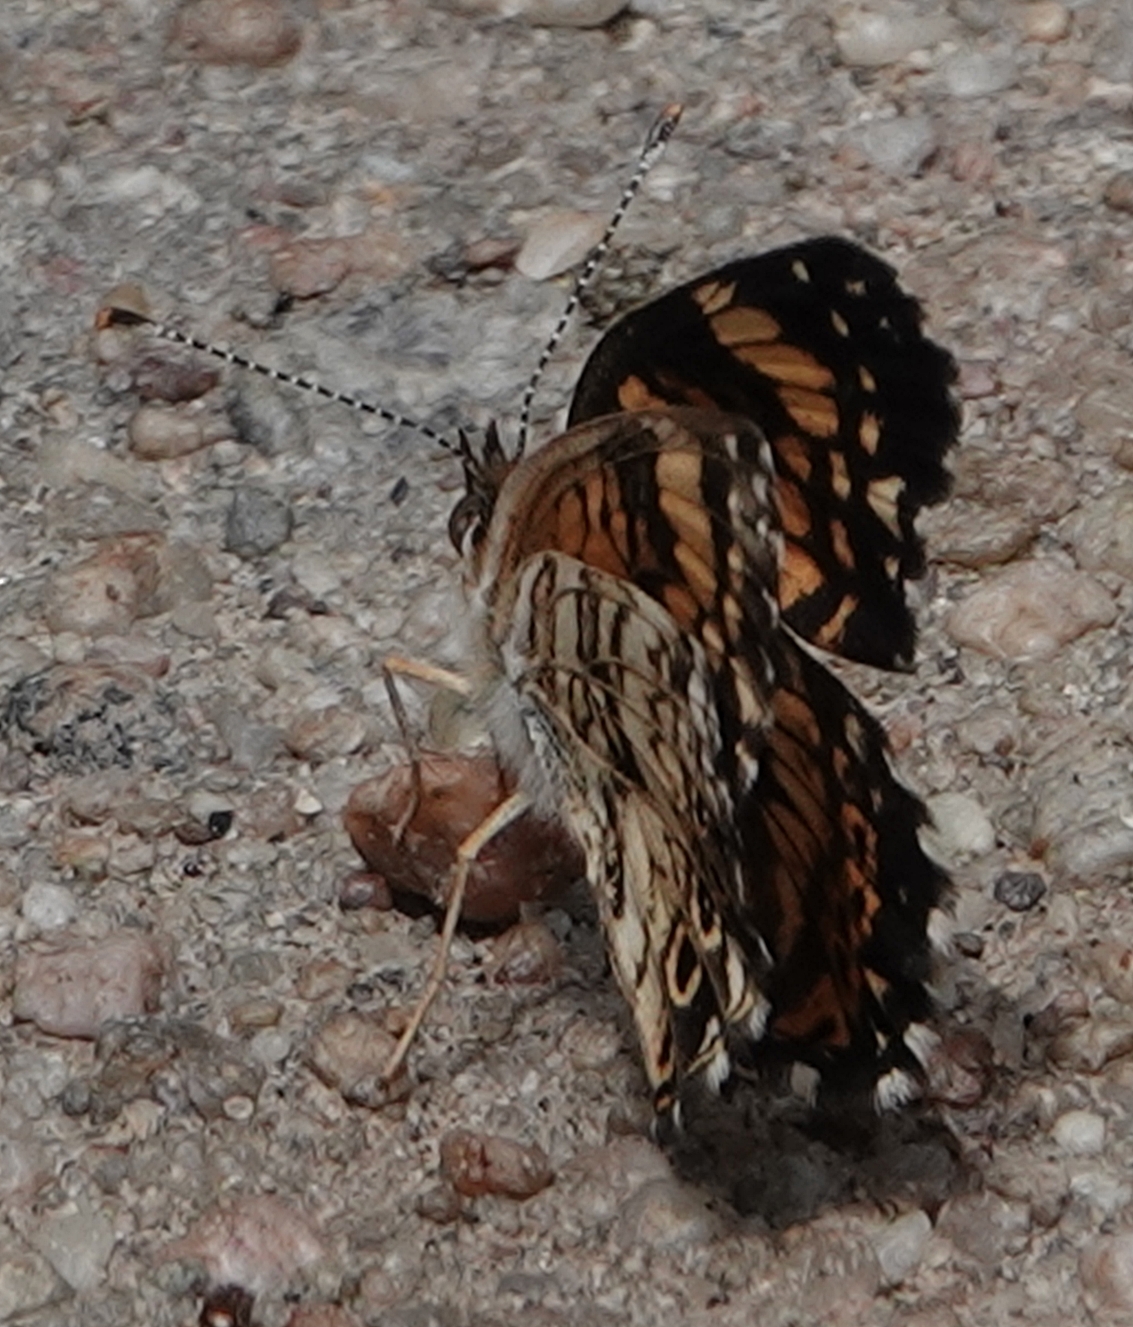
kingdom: Animalia
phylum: Arthropoda
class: Insecta
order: Lepidoptera
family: Nymphalidae
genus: Chlosyne
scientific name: Chlosyne gorgone
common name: Gorgone checkerspot
